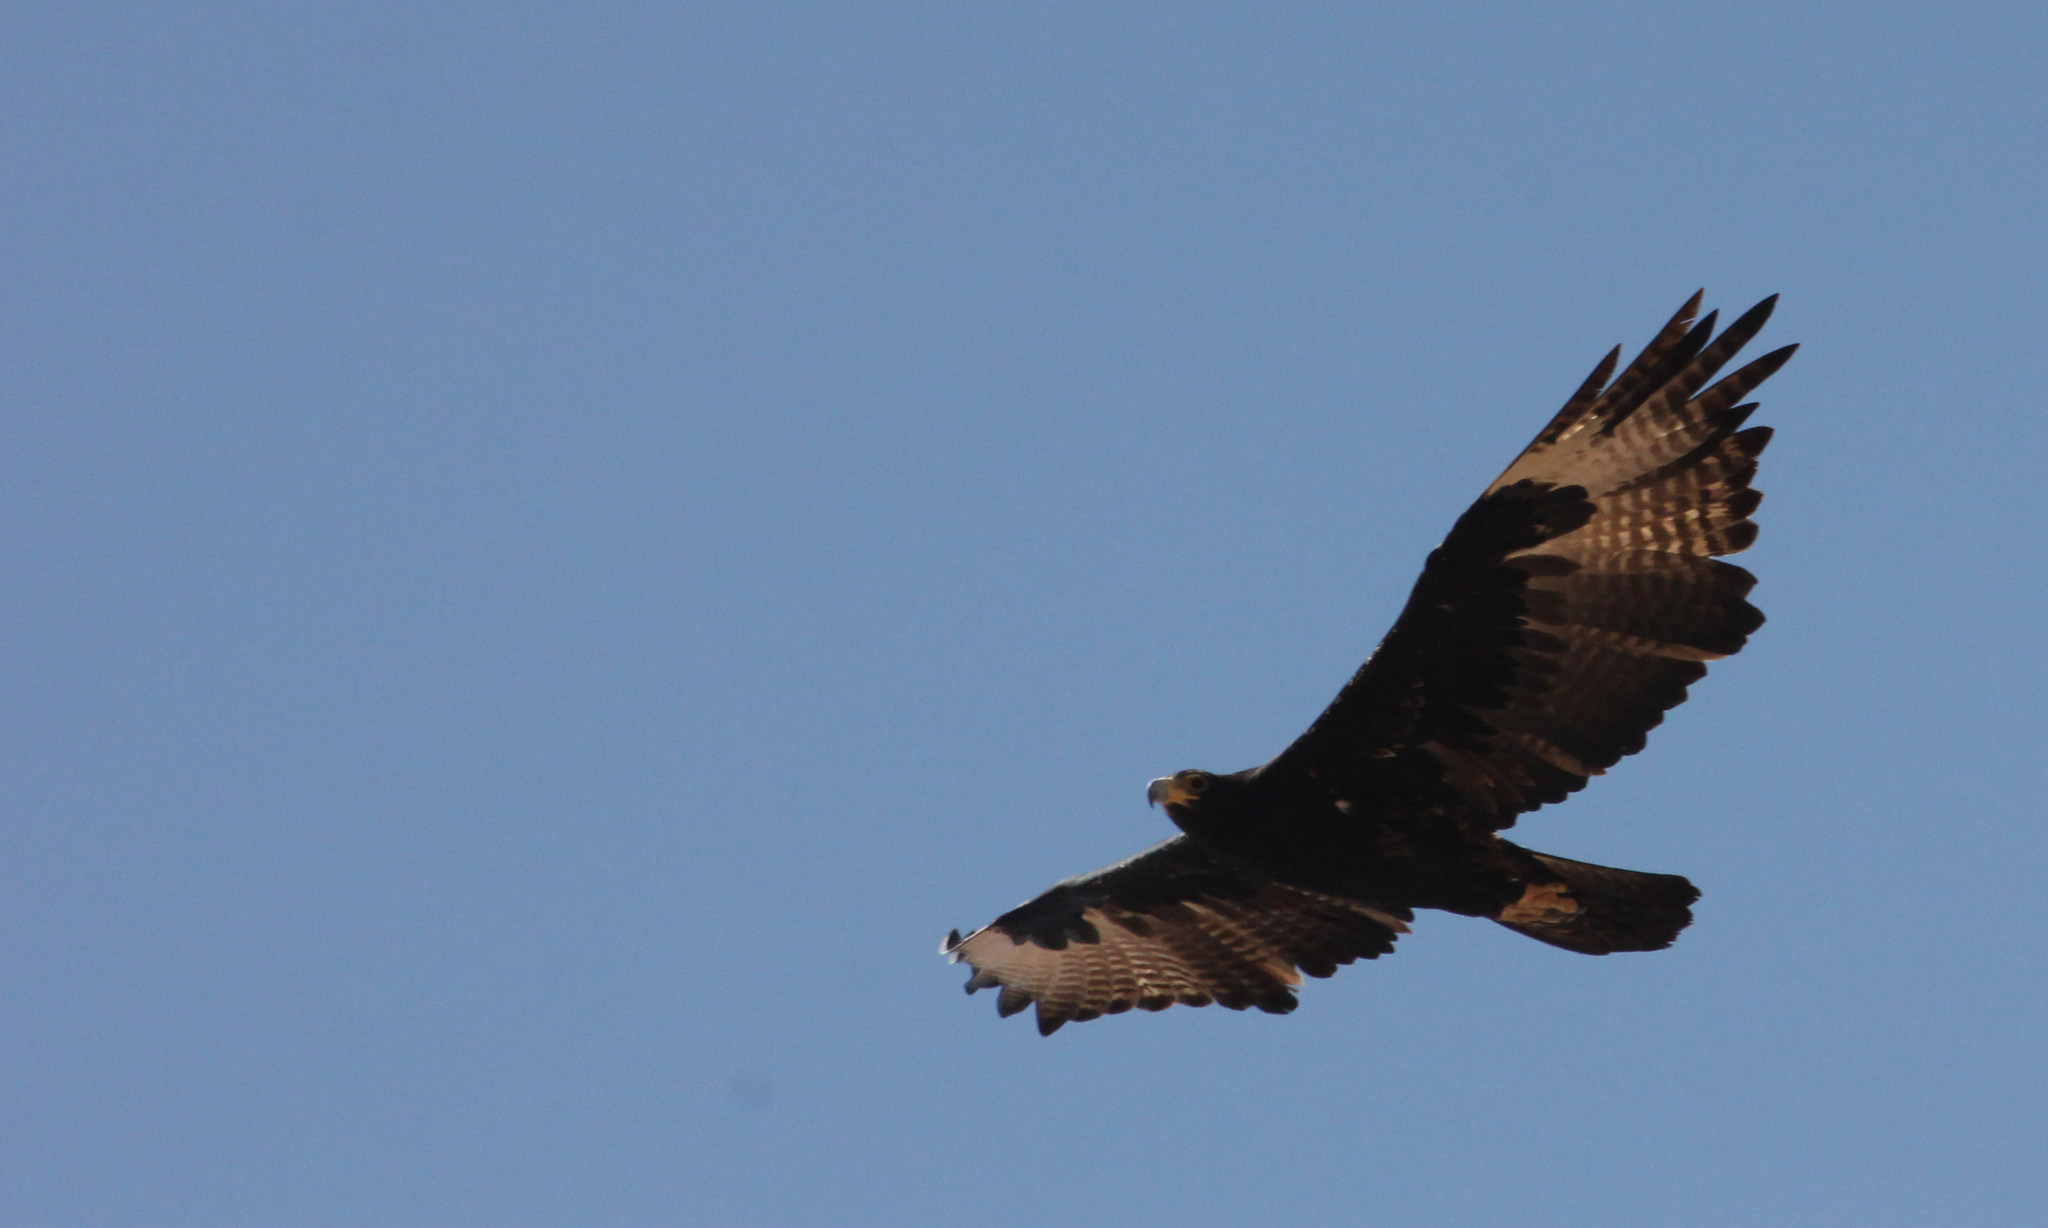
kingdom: Animalia
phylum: Chordata
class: Aves
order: Accipitriformes
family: Accipitridae
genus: Aquila
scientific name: Aquila verreauxii
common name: Verreaux's eagle
